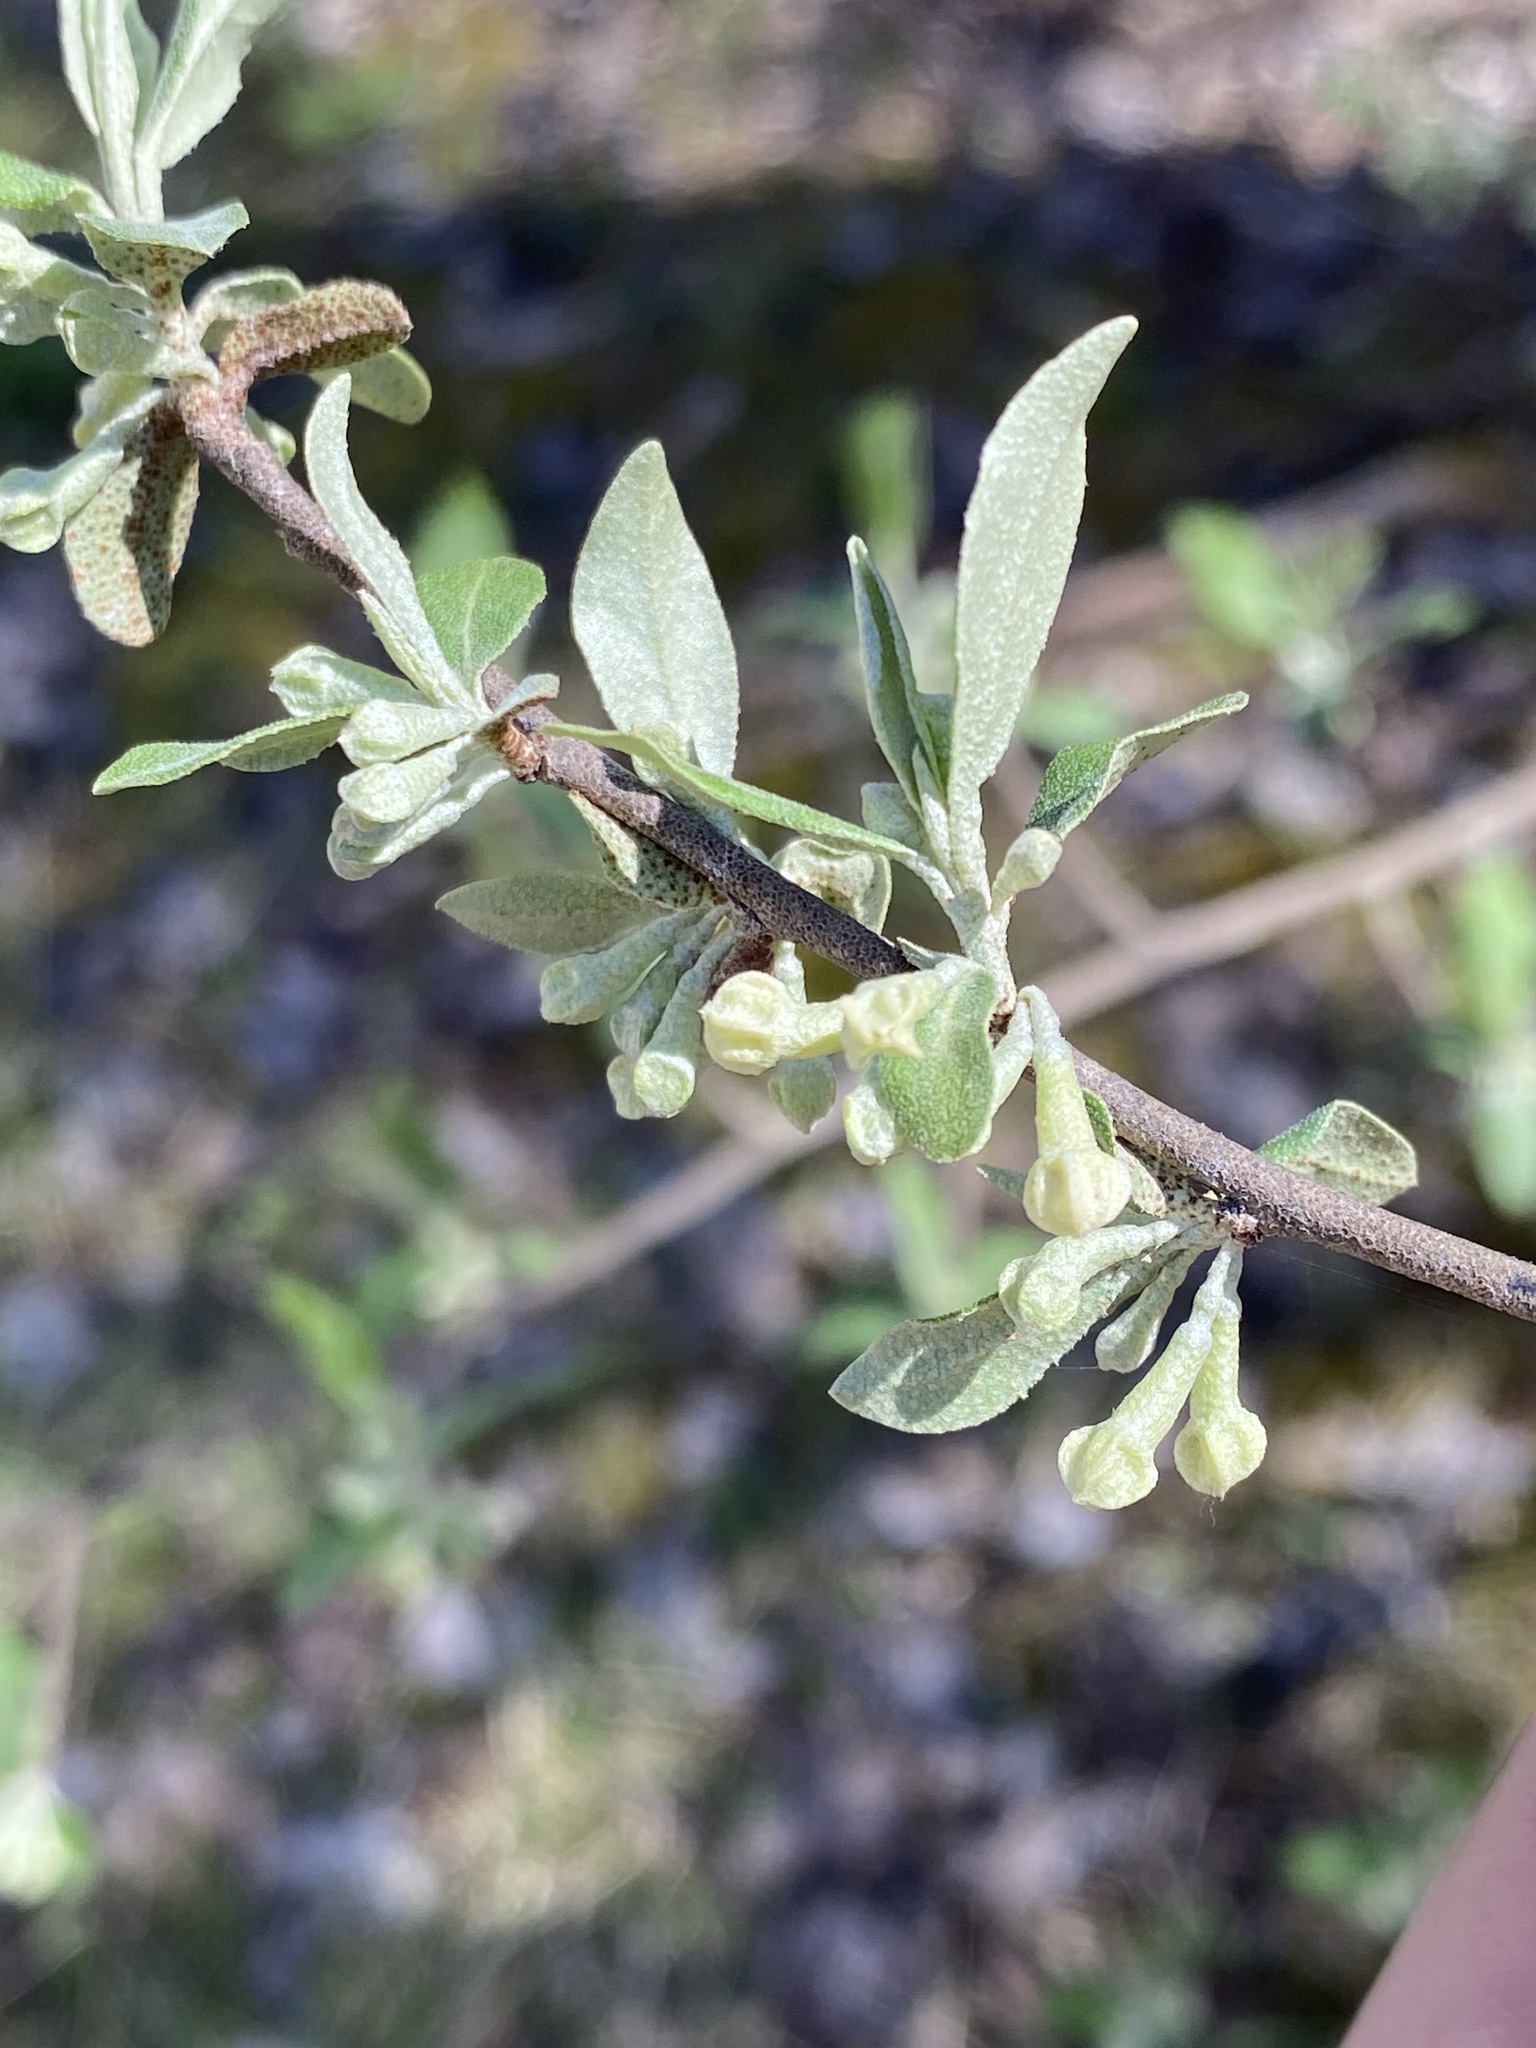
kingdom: Plantae
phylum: Tracheophyta
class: Magnoliopsida
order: Rosales
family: Elaeagnaceae
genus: Elaeagnus
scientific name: Elaeagnus umbellata
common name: Autumn olive
